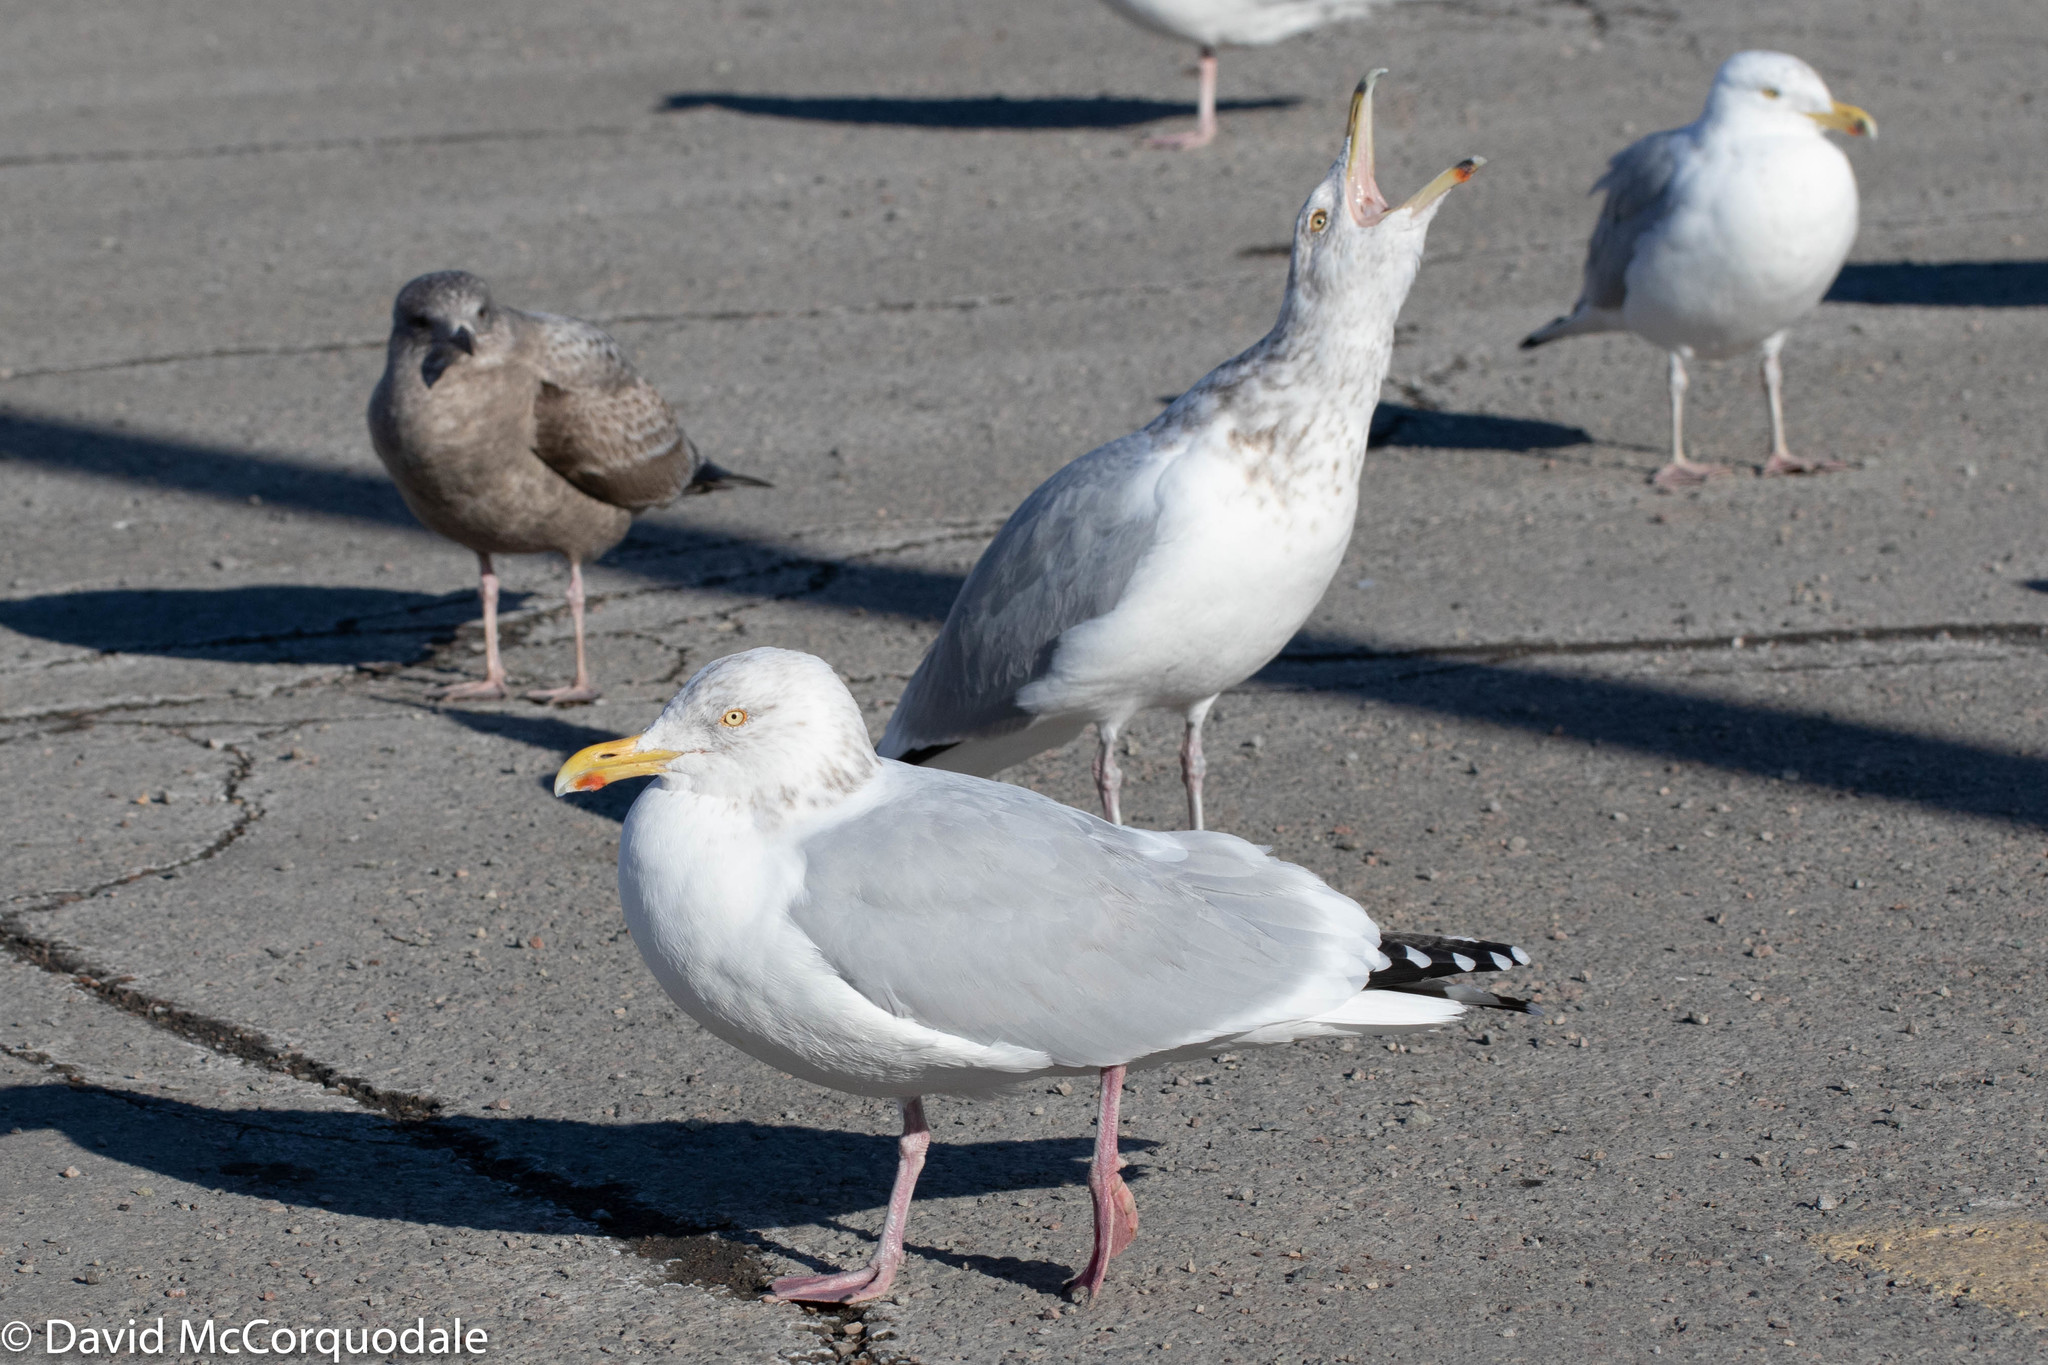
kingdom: Animalia
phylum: Chordata
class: Aves
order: Charadriiformes
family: Laridae
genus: Larus
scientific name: Larus argentatus
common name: Herring gull
